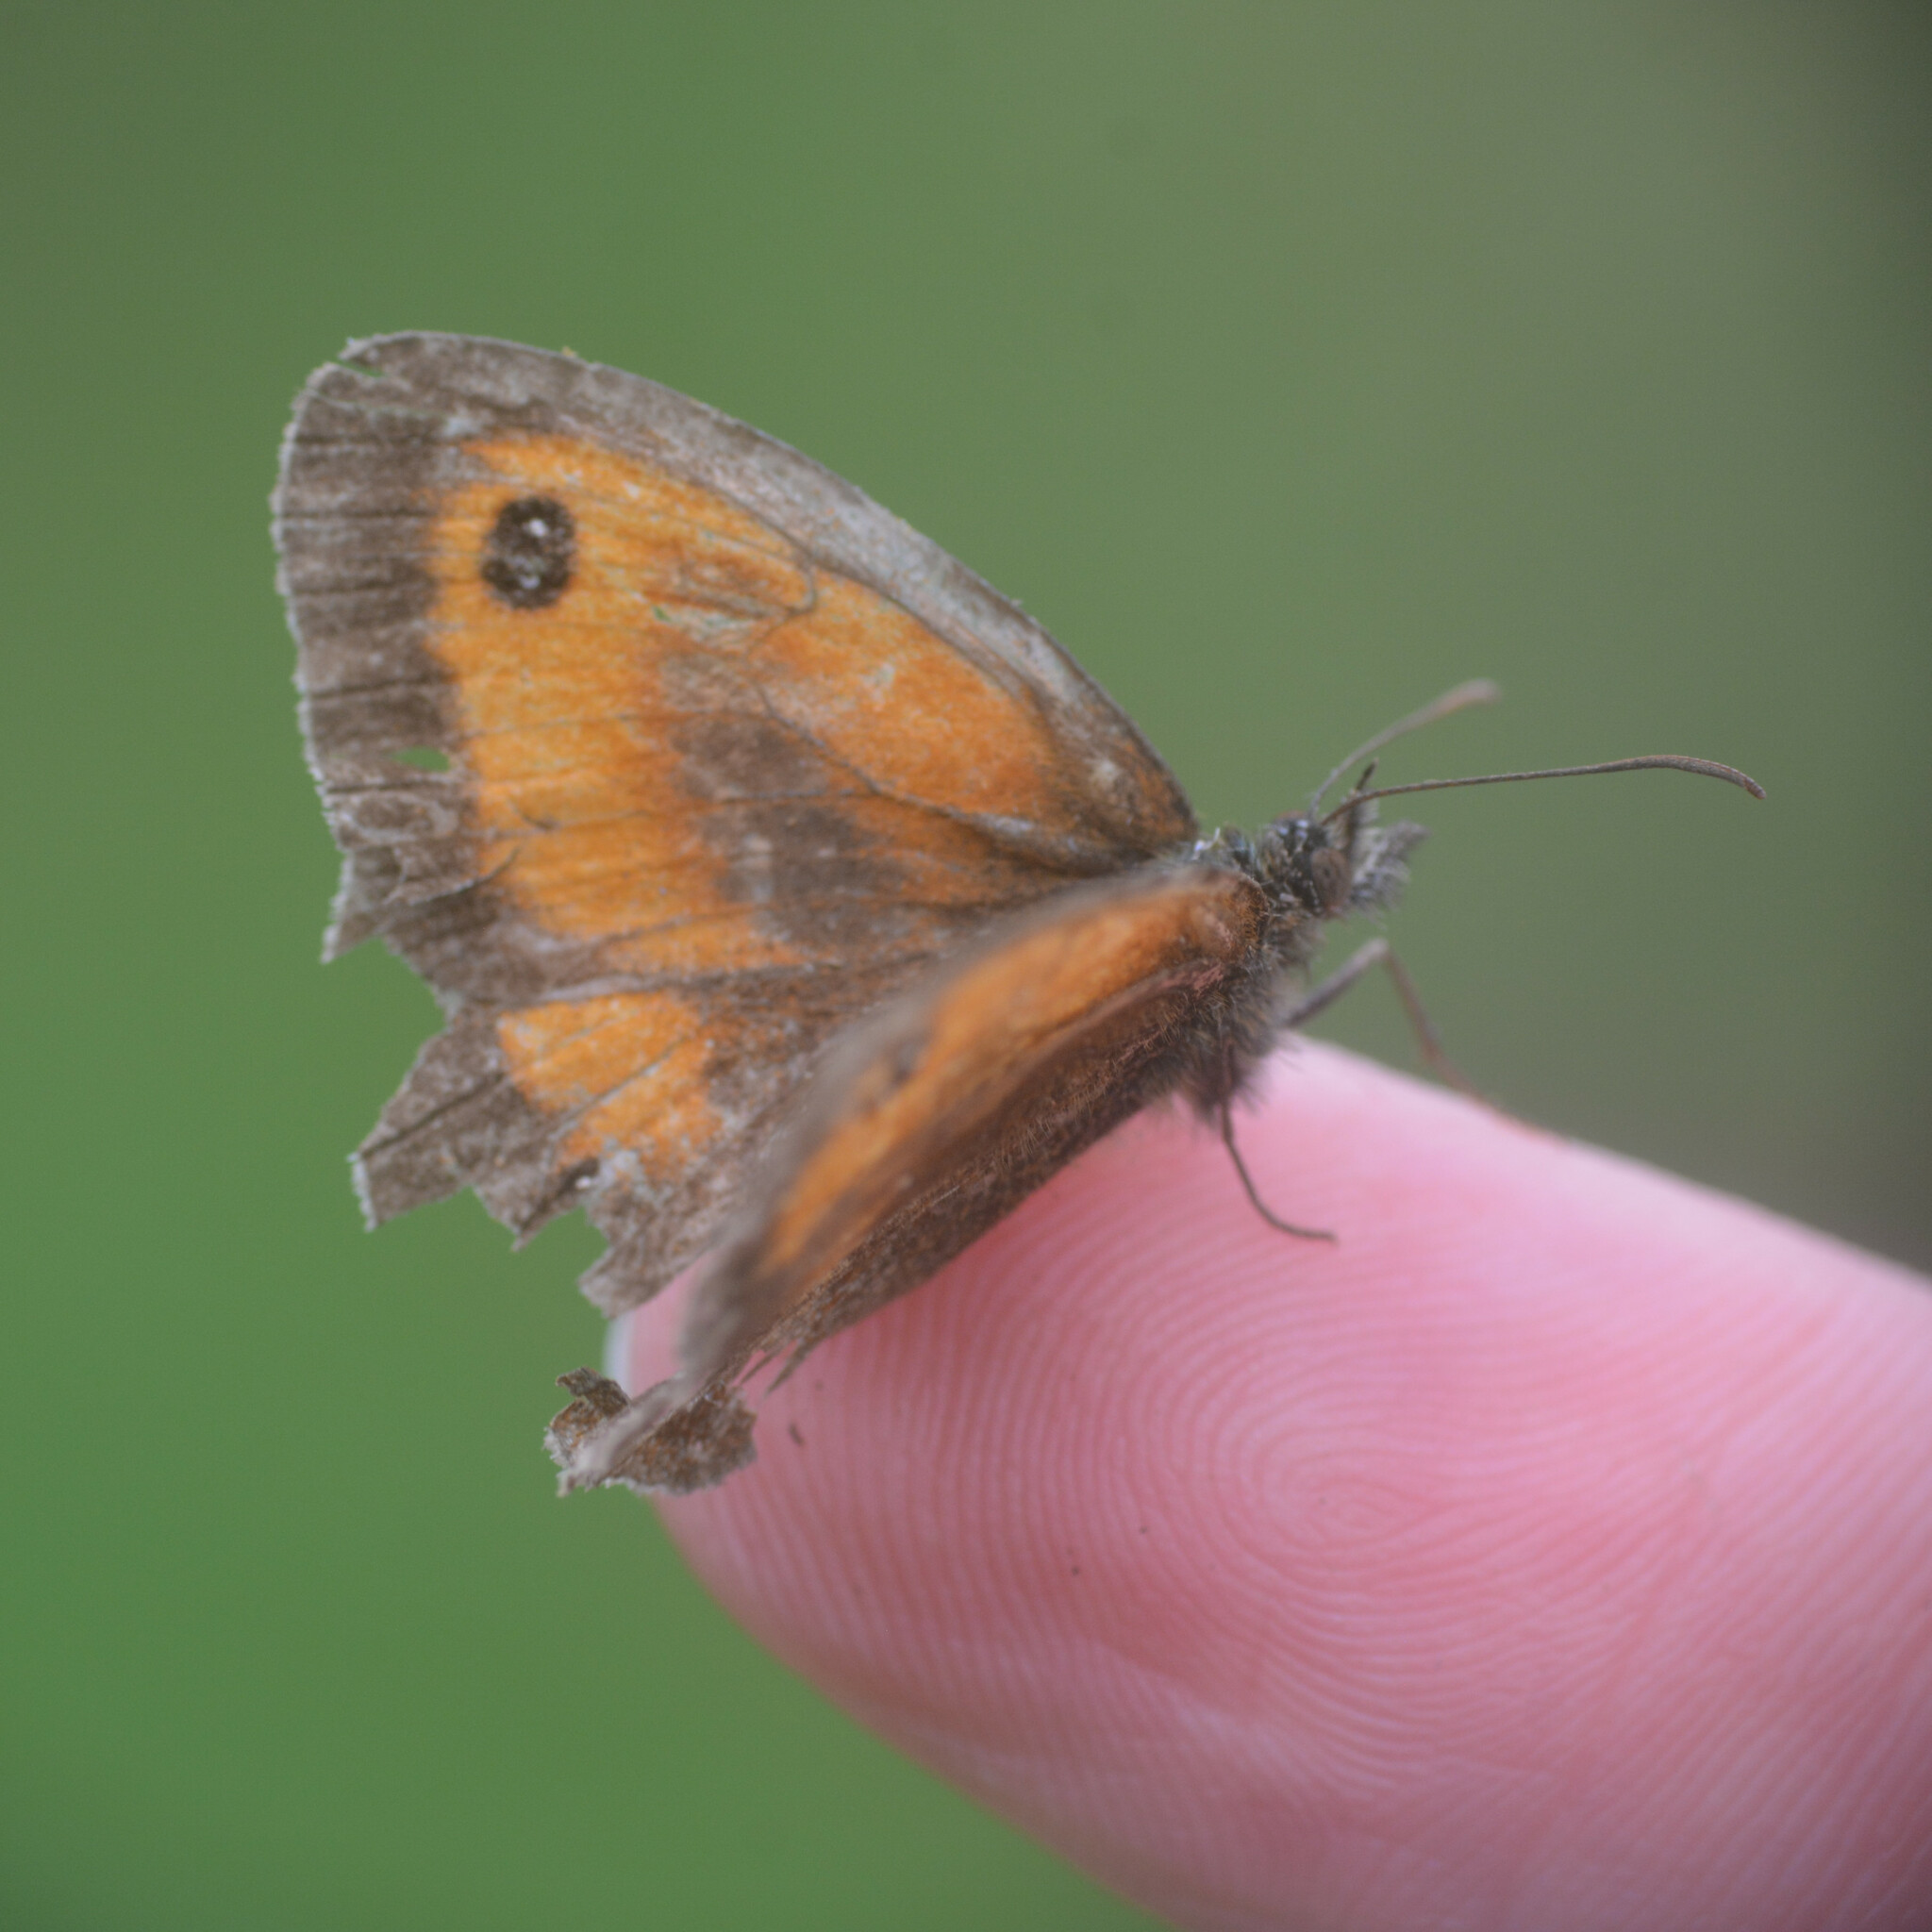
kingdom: Animalia
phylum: Arthropoda
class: Insecta
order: Lepidoptera
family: Nymphalidae
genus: Pyronia
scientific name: Pyronia tithonus
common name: Gatekeeper
